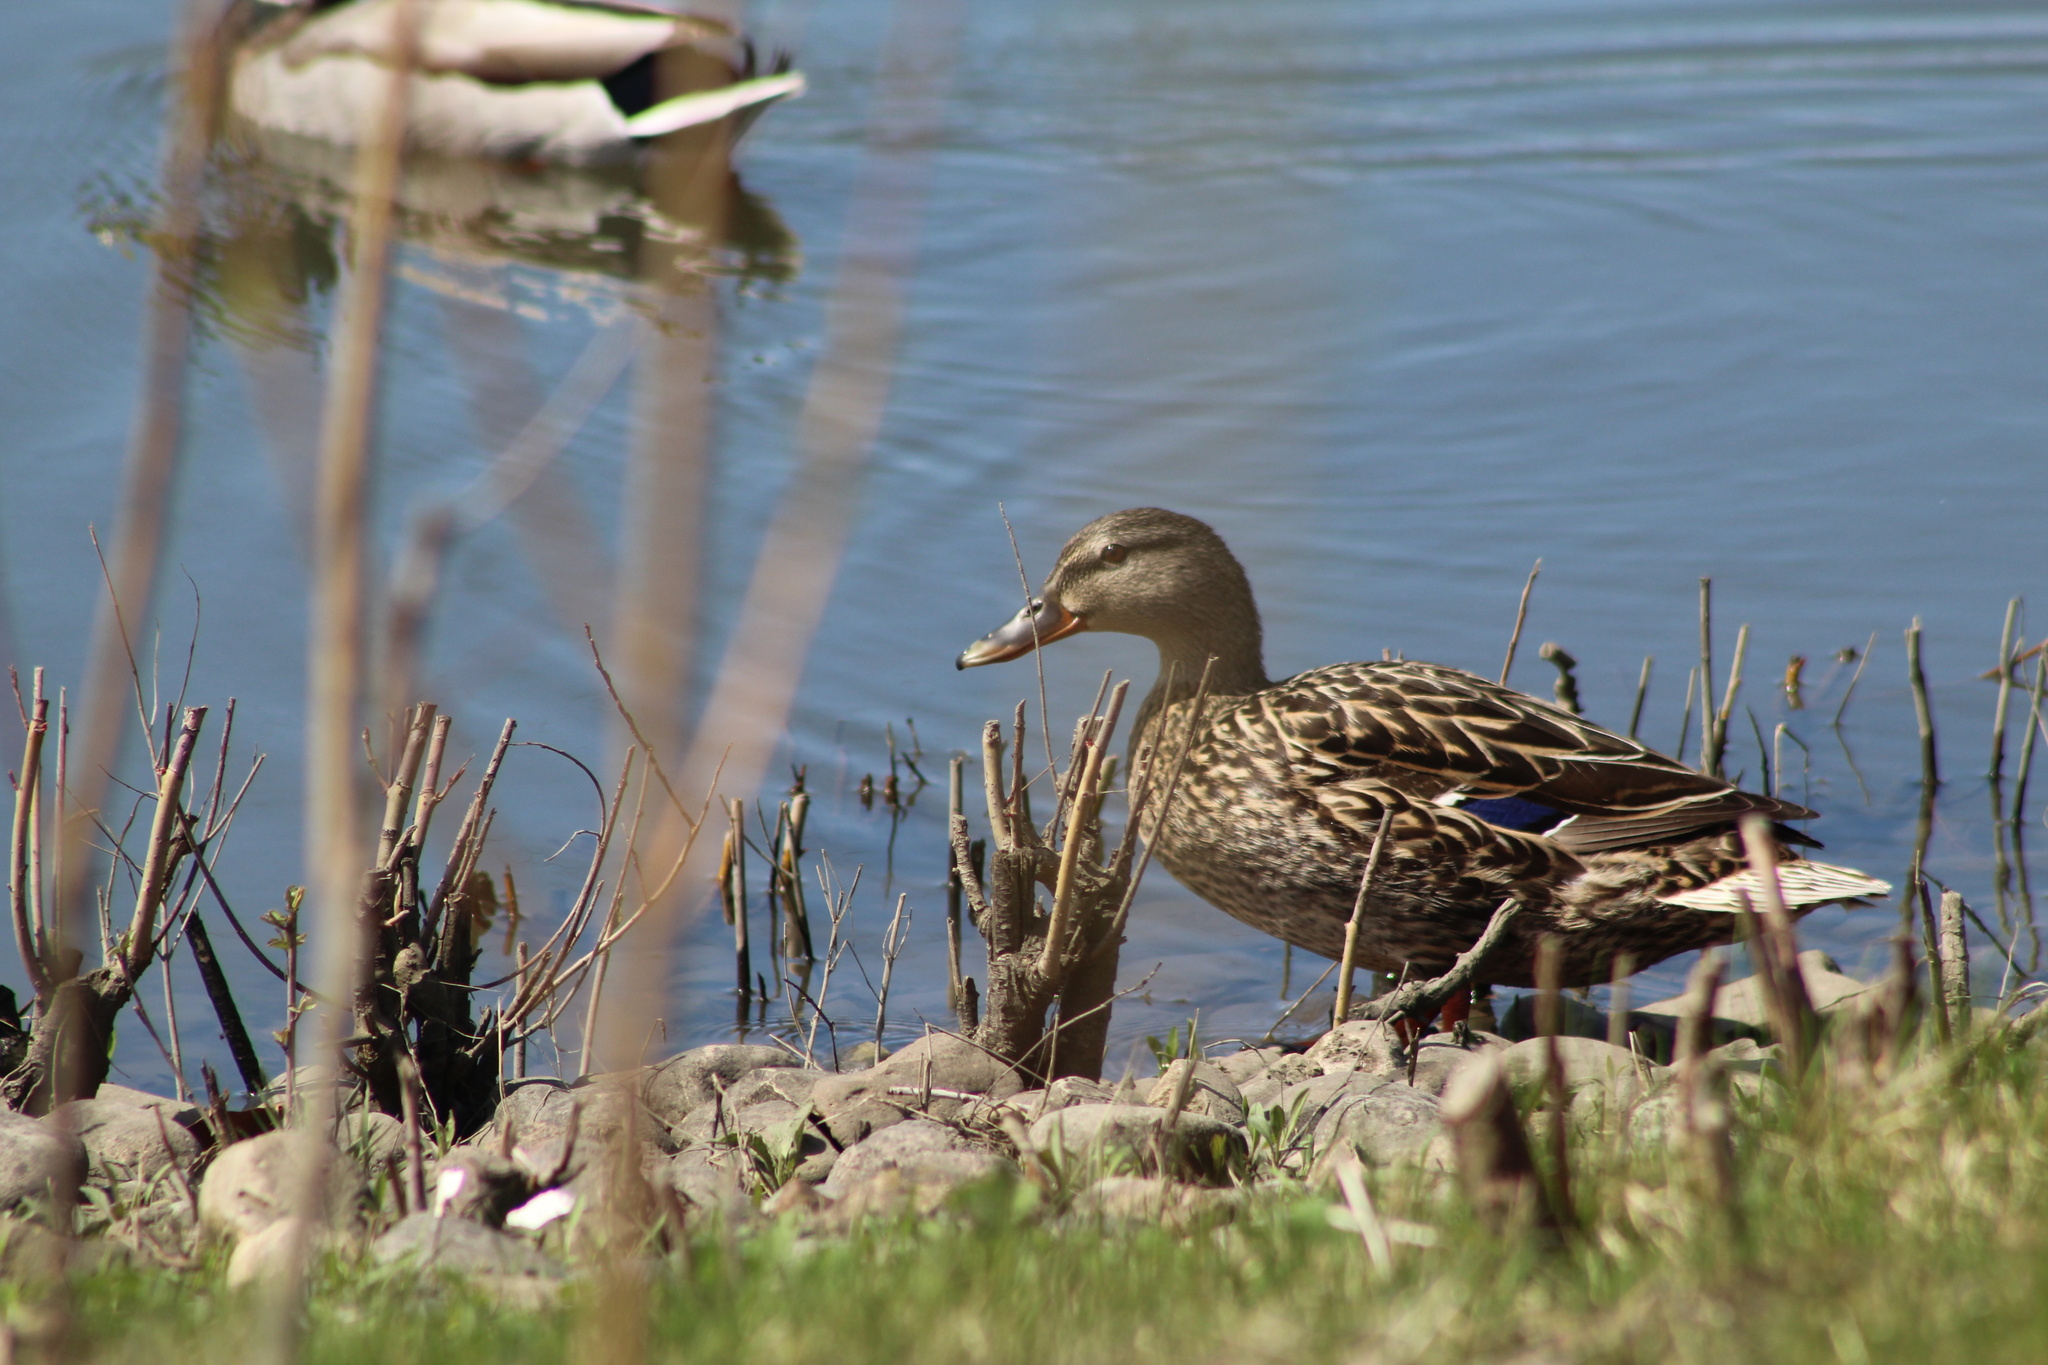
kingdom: Animalia
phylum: Chordata
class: Aves
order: Anseriformes
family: Anatidae
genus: Anas
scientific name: Anas platyrhynchos
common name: Mallard
